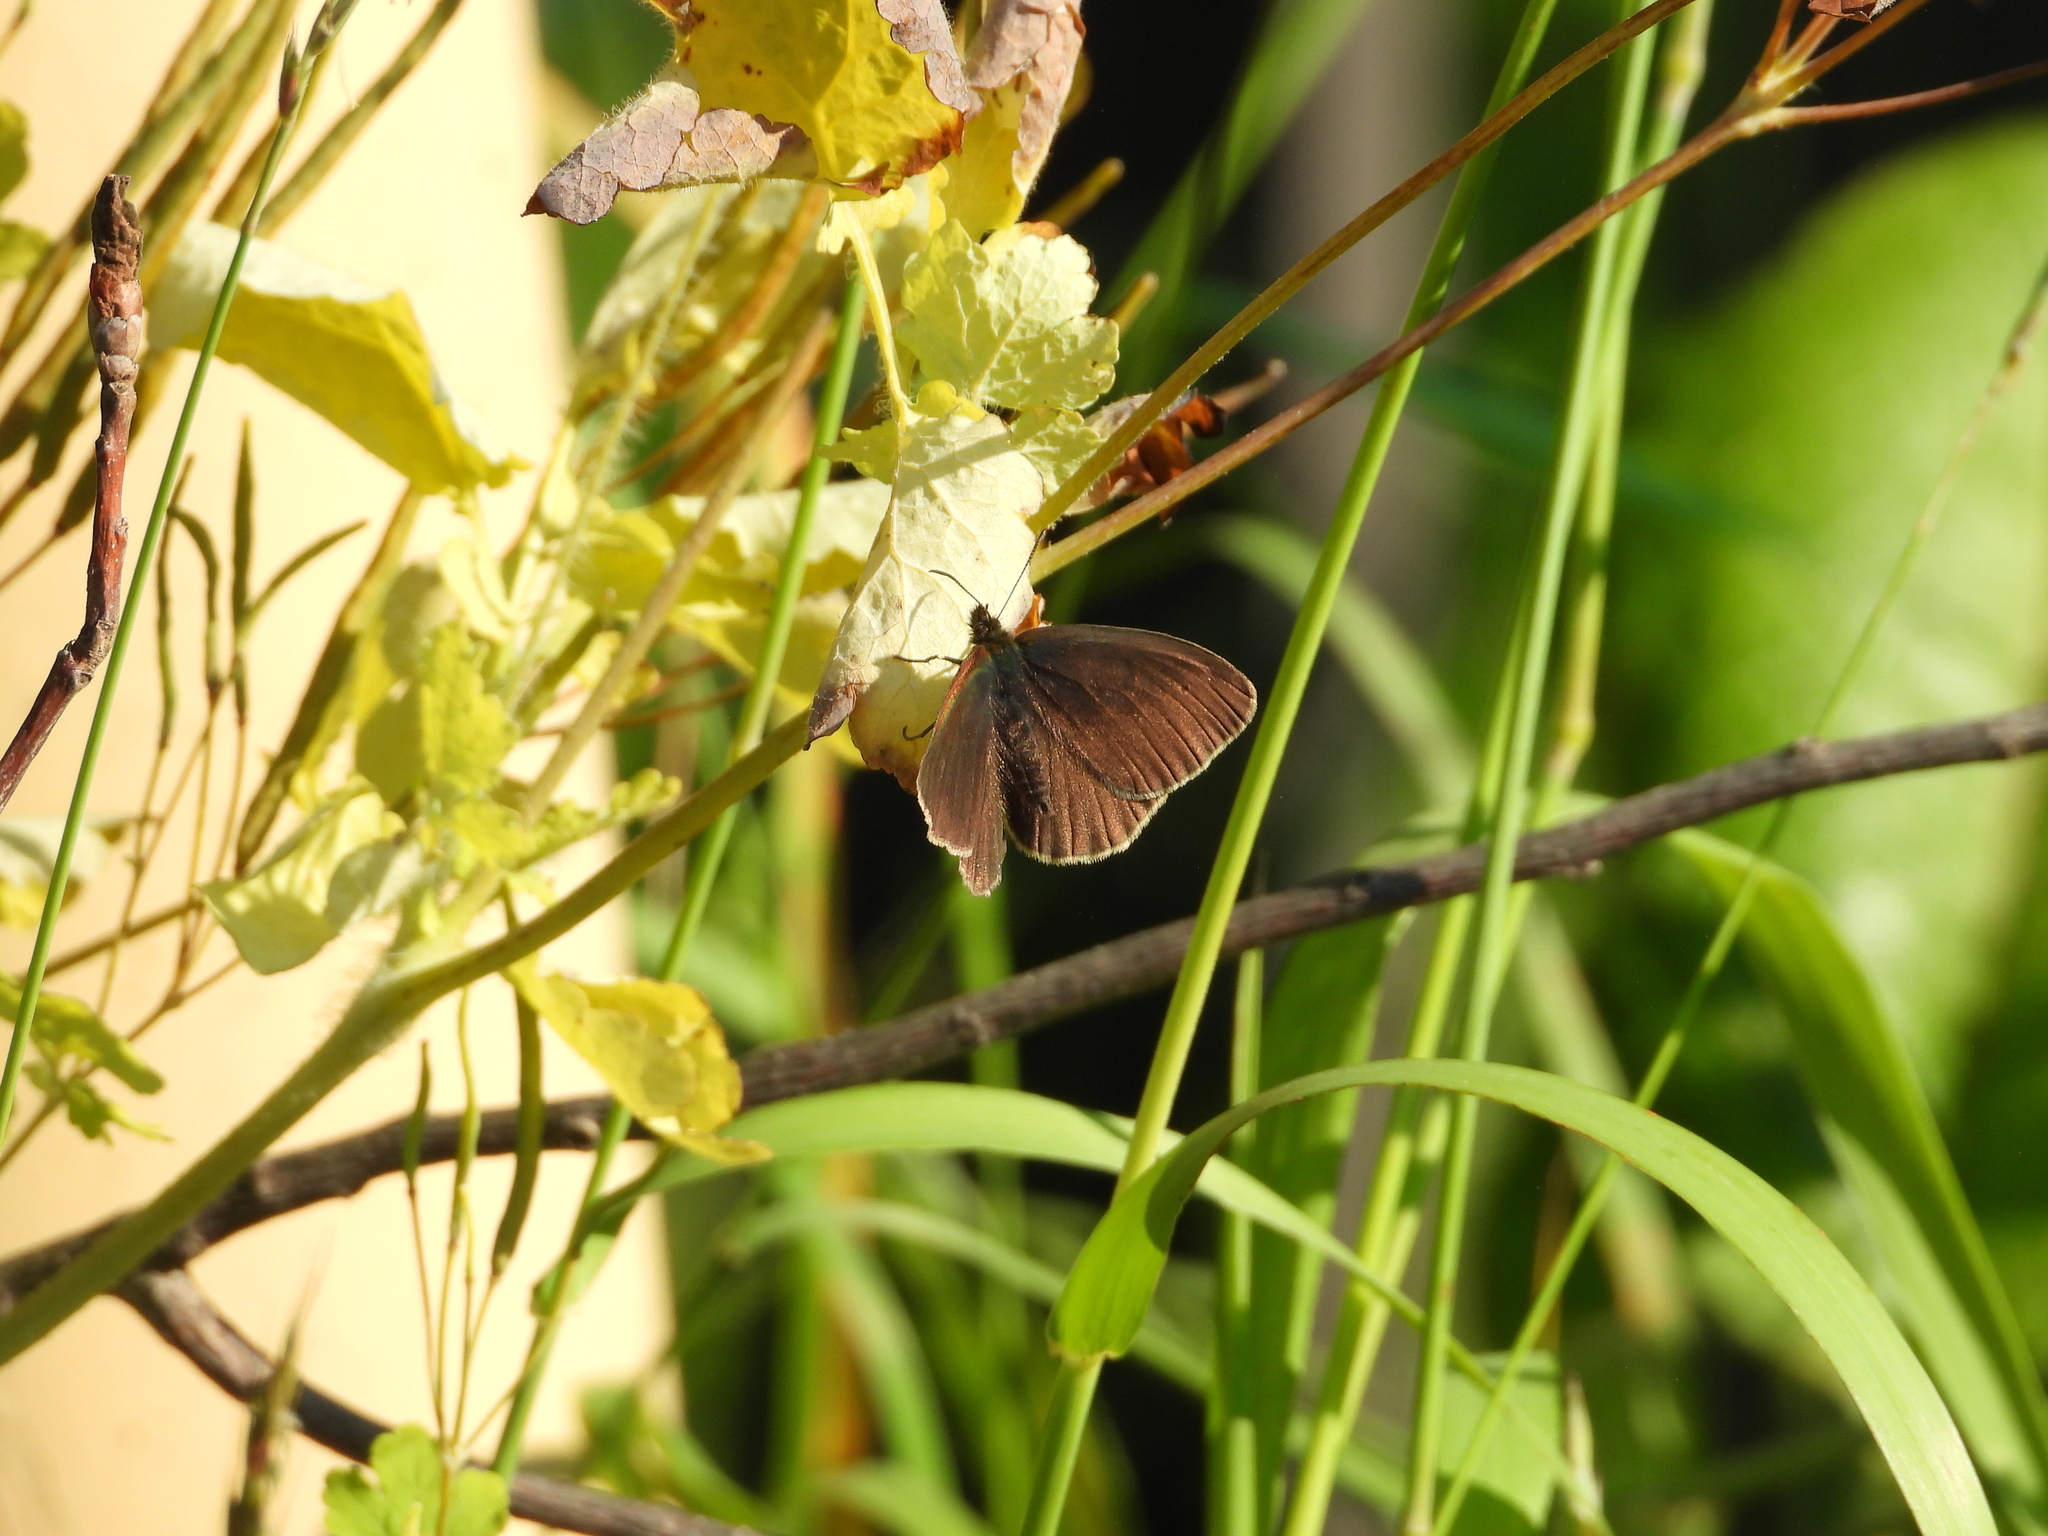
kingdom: Animalia
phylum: Arthropoda
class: Insecta
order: Lepidoptera
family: Nymphalidae
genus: Aphantopus
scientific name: Aphantopus hyperantus
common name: Ringlet
